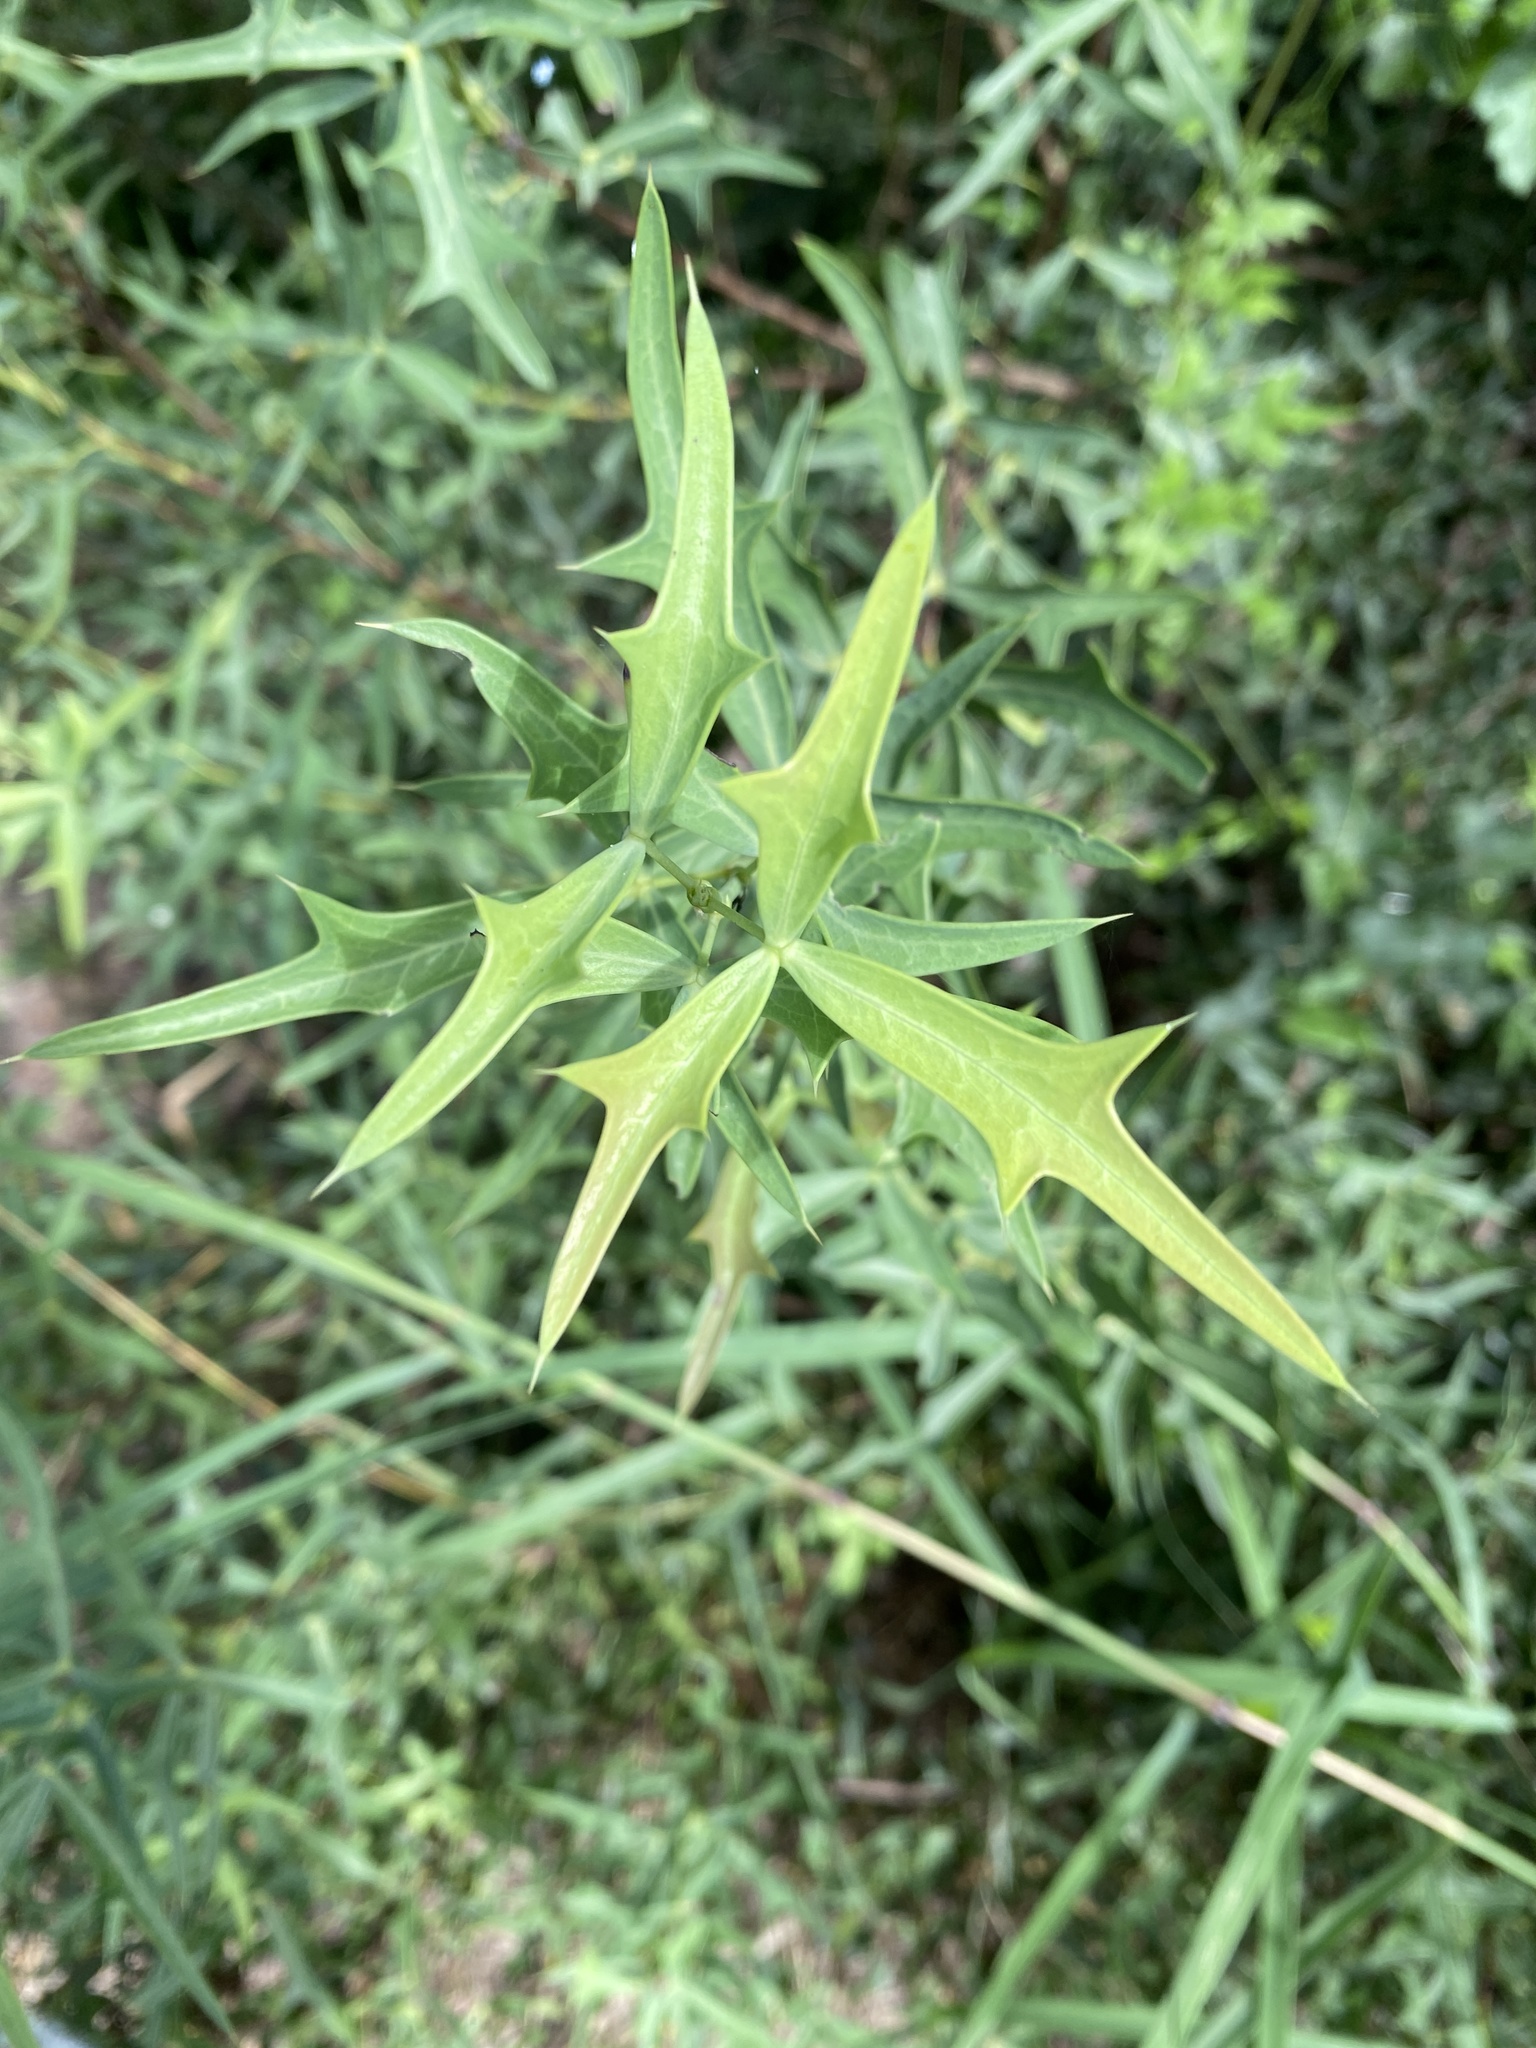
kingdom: Plantae
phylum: Tracheophyta
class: Magnoliopsida
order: Ranunculales
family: Berberidaceae
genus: Alloberberis
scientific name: Alloberberis trifoliolata
